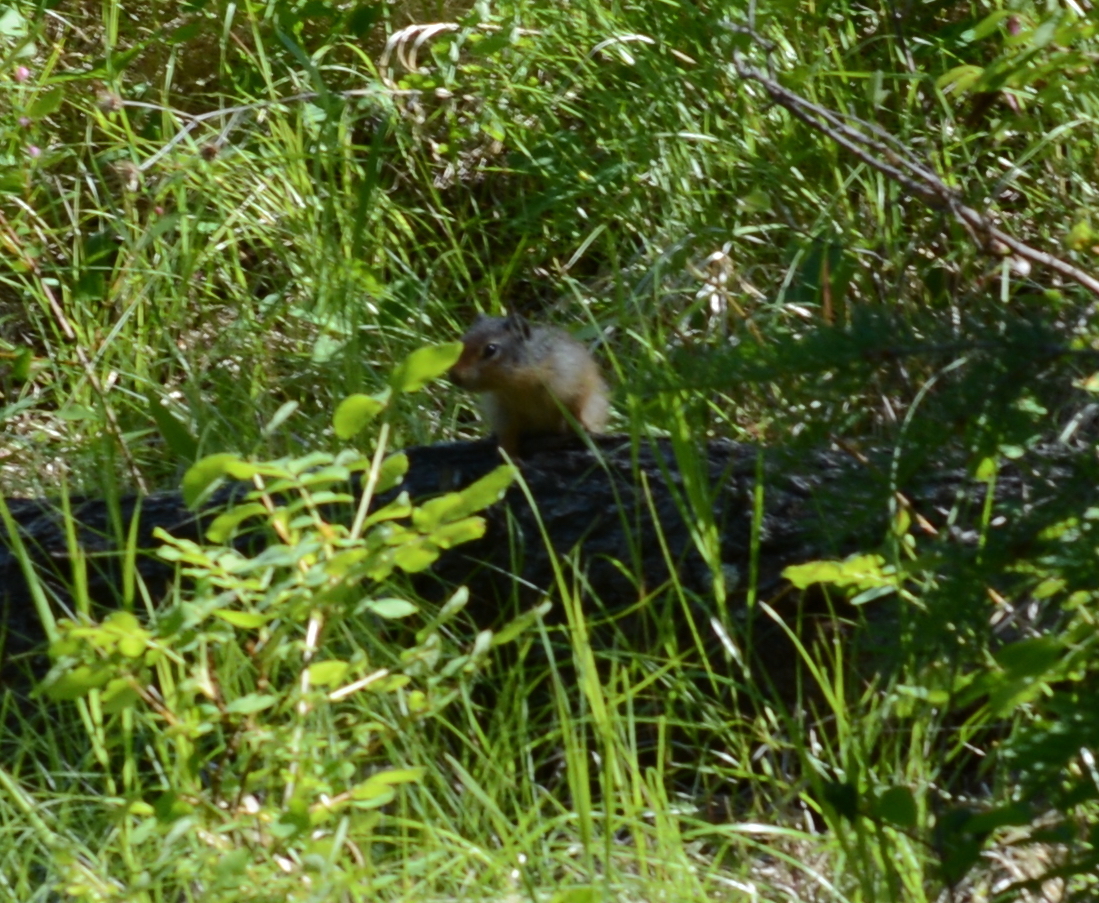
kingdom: Animalia
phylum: Chordata
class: Mammalia
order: Rodentia
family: Sciuridae
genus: Urocitellus
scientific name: Urocitellus columbianus
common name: Columbian ground squirrel
